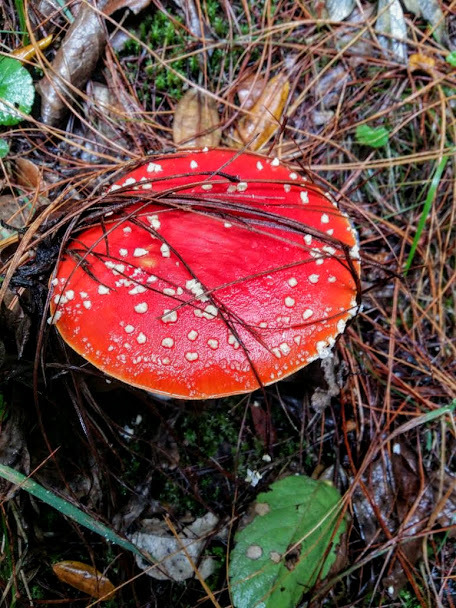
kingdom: Fungi
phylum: Basidiomycota
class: Agaricomycetes
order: Agaricales
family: Amanitaceae
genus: Amanita
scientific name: Amanita muscaria
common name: Fly agaric
